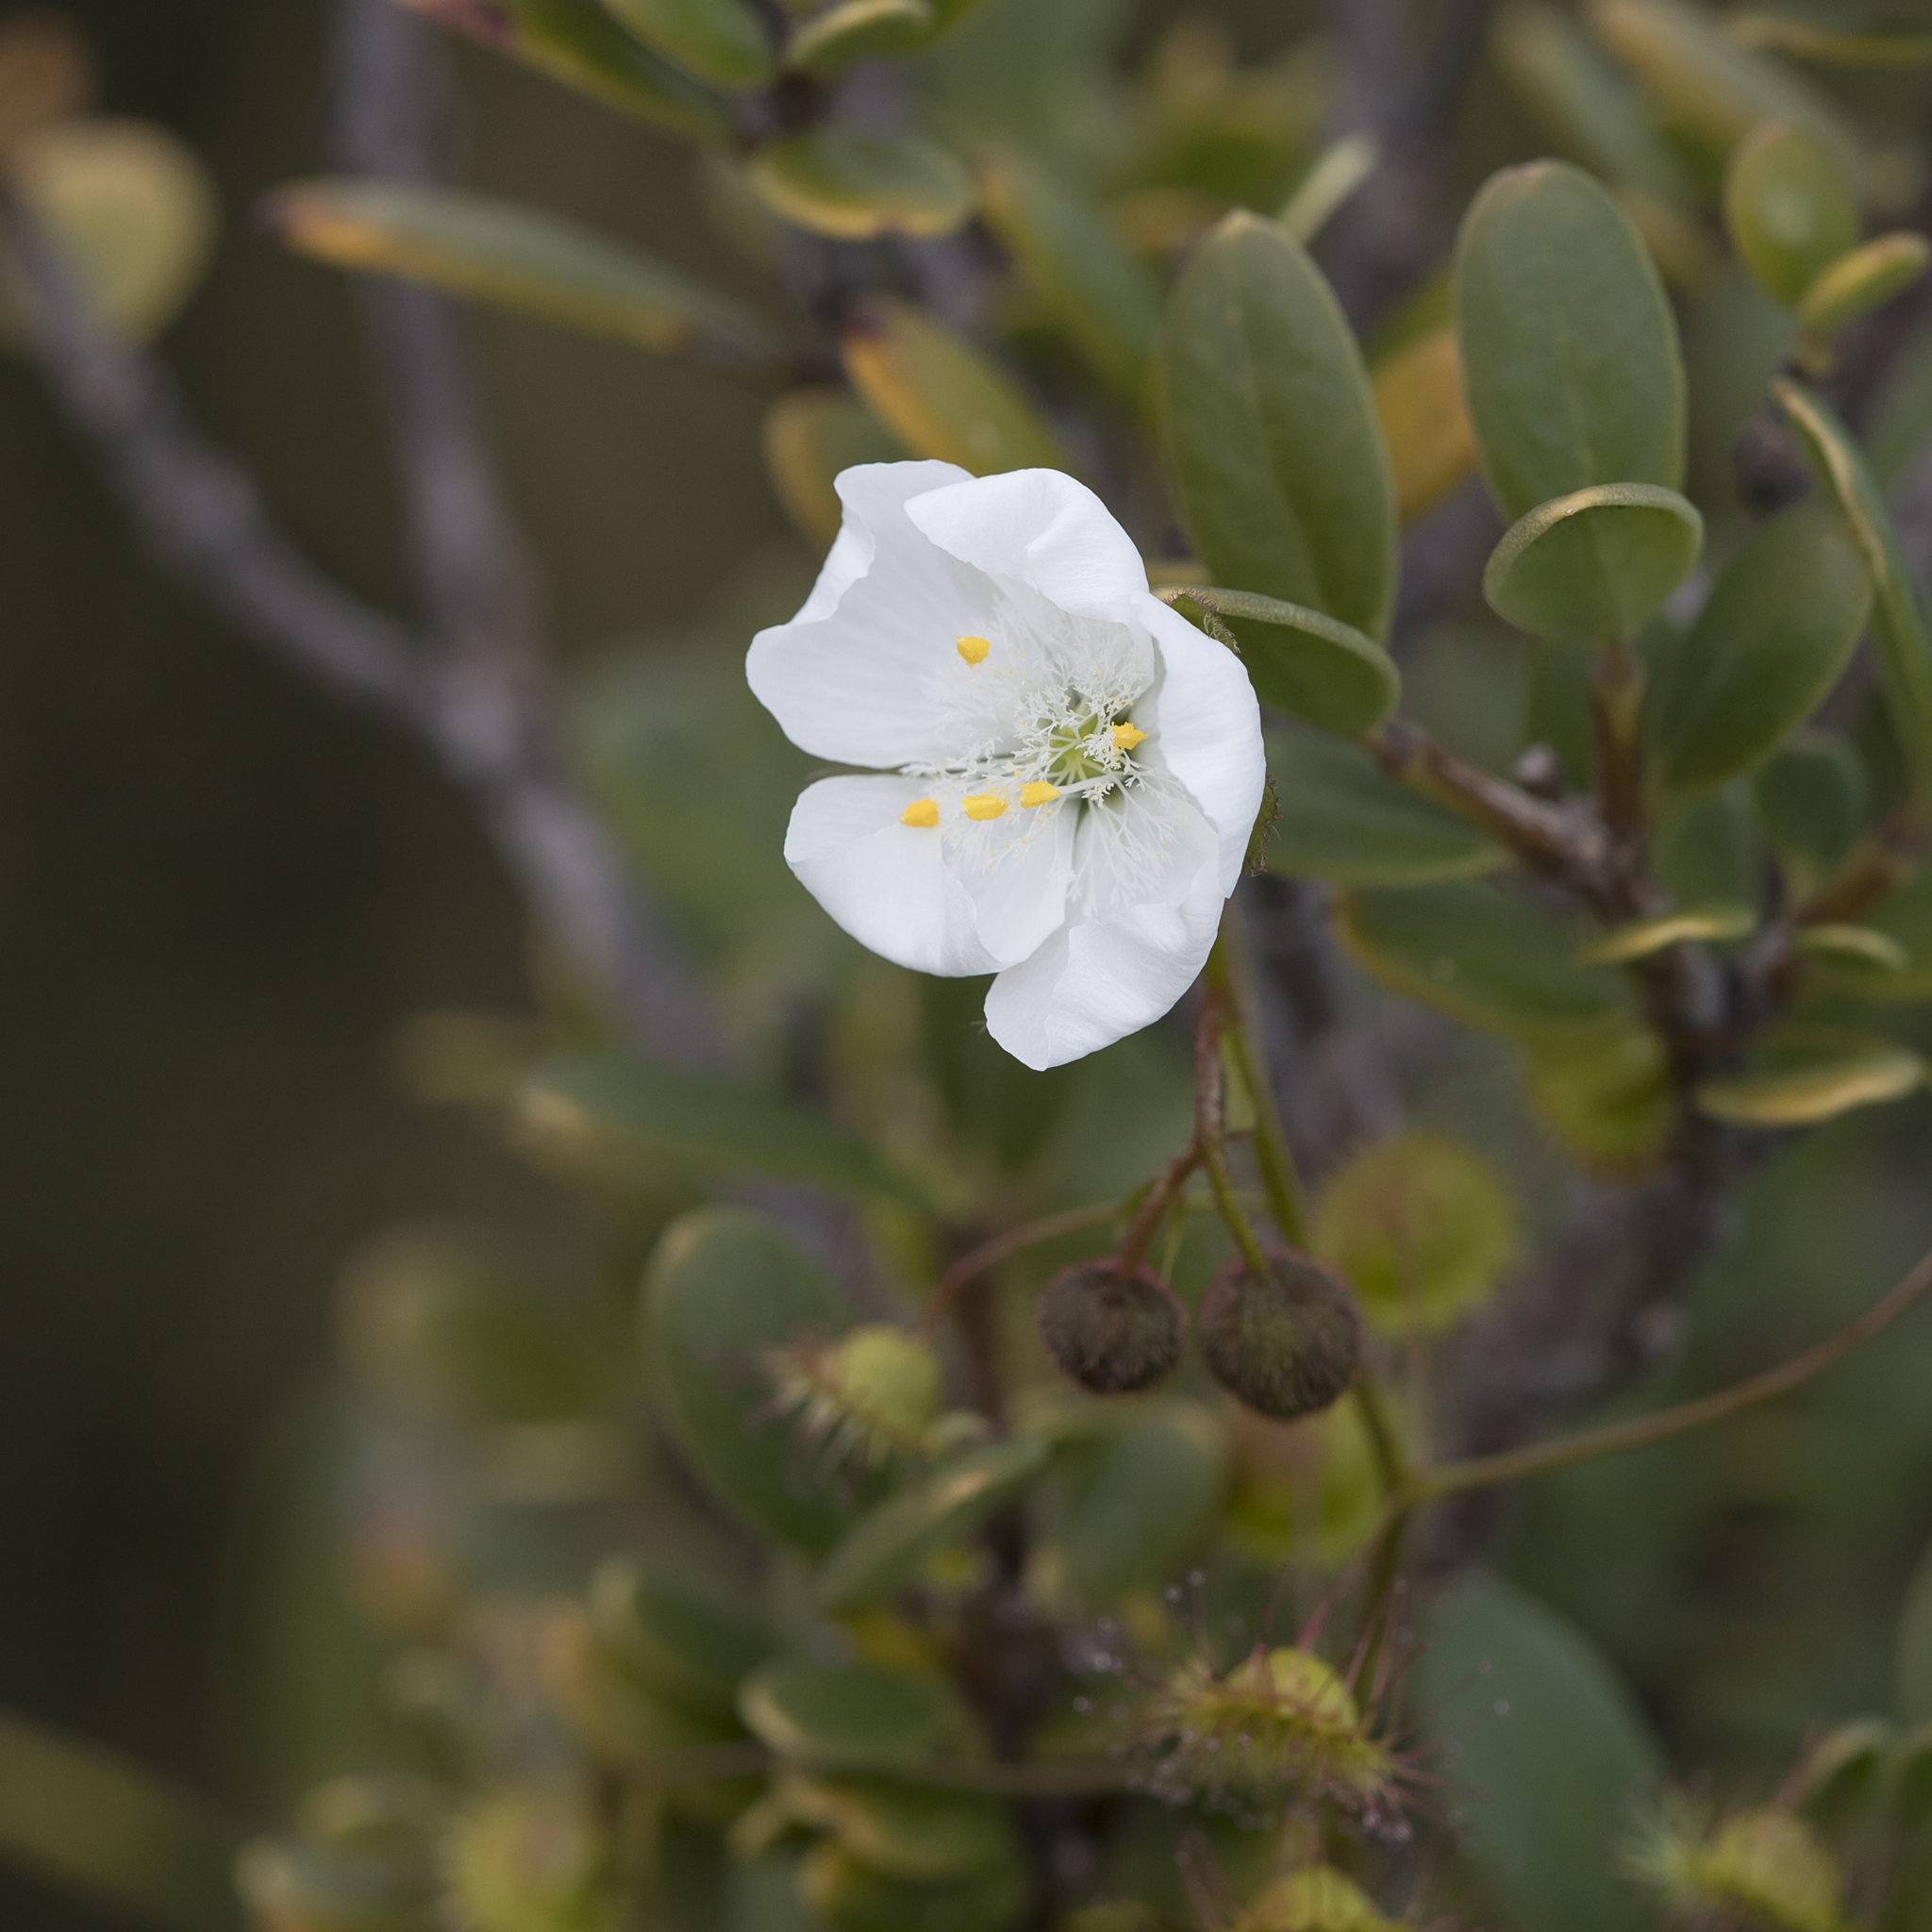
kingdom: Plantae
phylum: Tracheophyta
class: Magnoliopsida
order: Caryophyllales
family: Droseraceae
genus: Drosera
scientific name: Drosera planchonii
